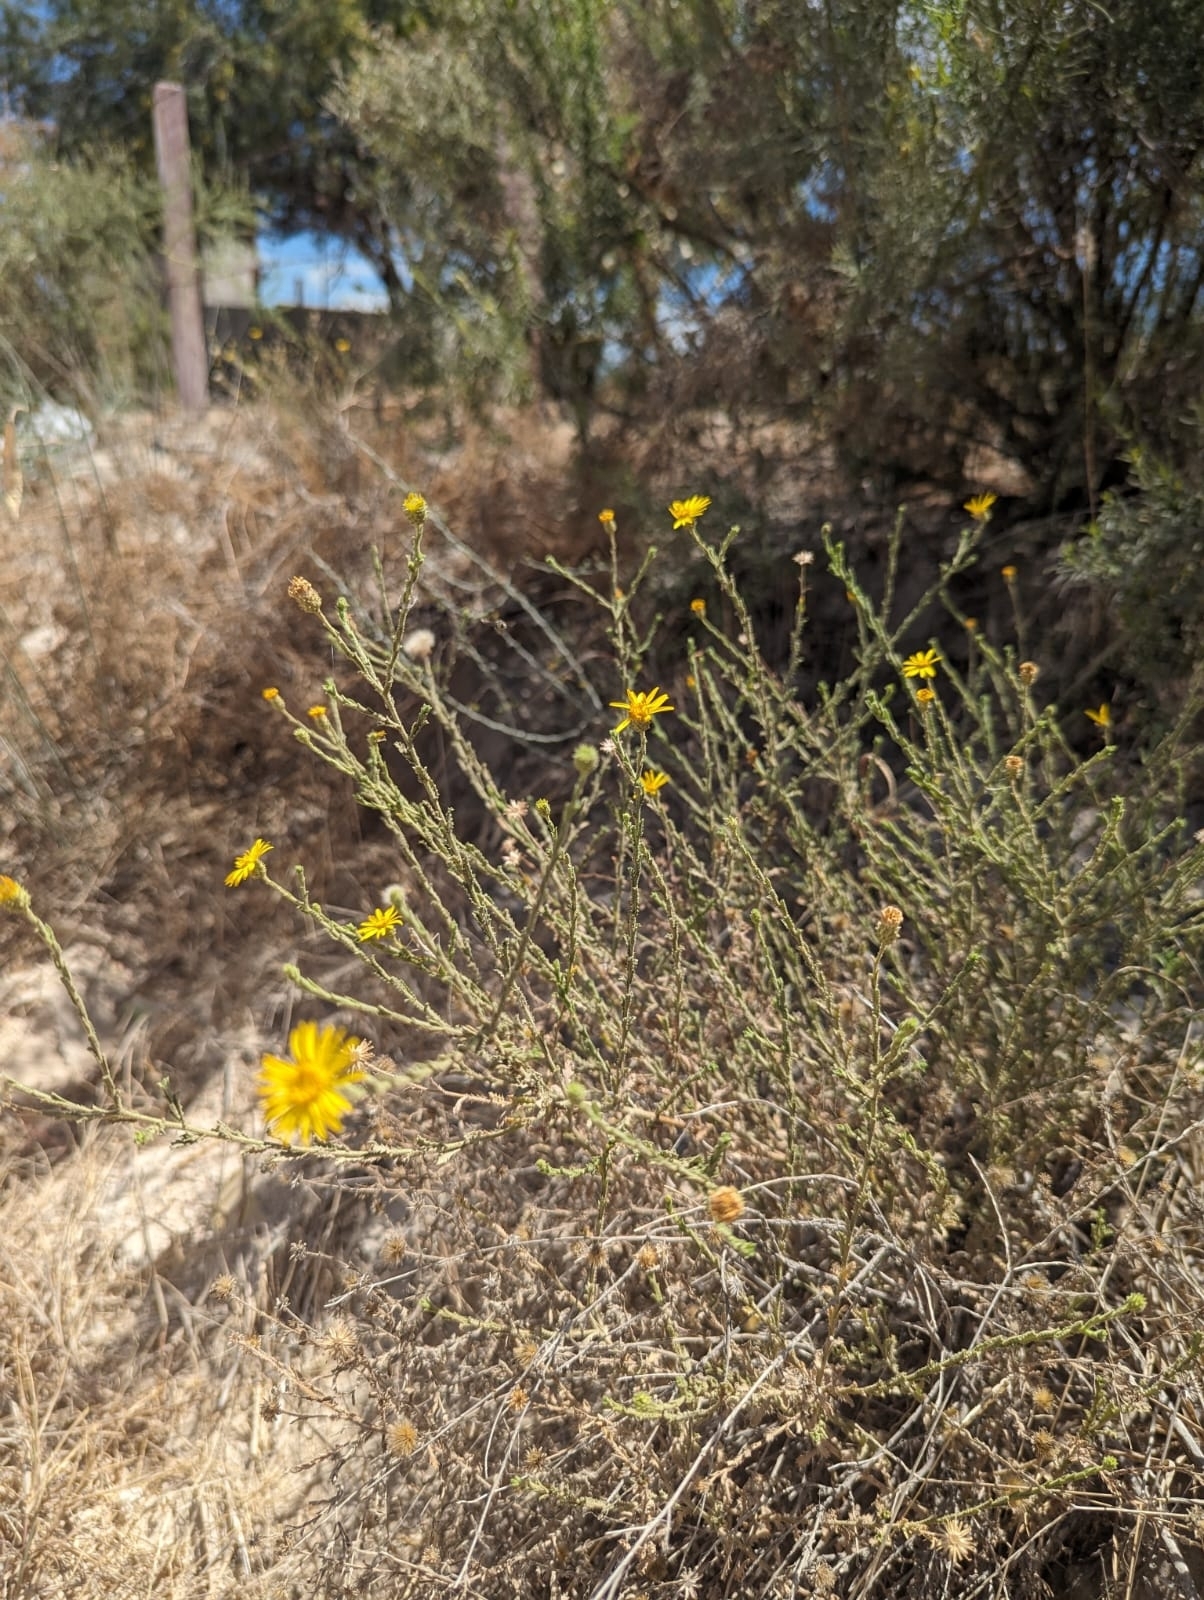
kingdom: Plantae
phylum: Tracheophyta
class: Magnoliopsida
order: Asterales
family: Asteraceae
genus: Xanthisma
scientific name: Xanthisma scabrellum
